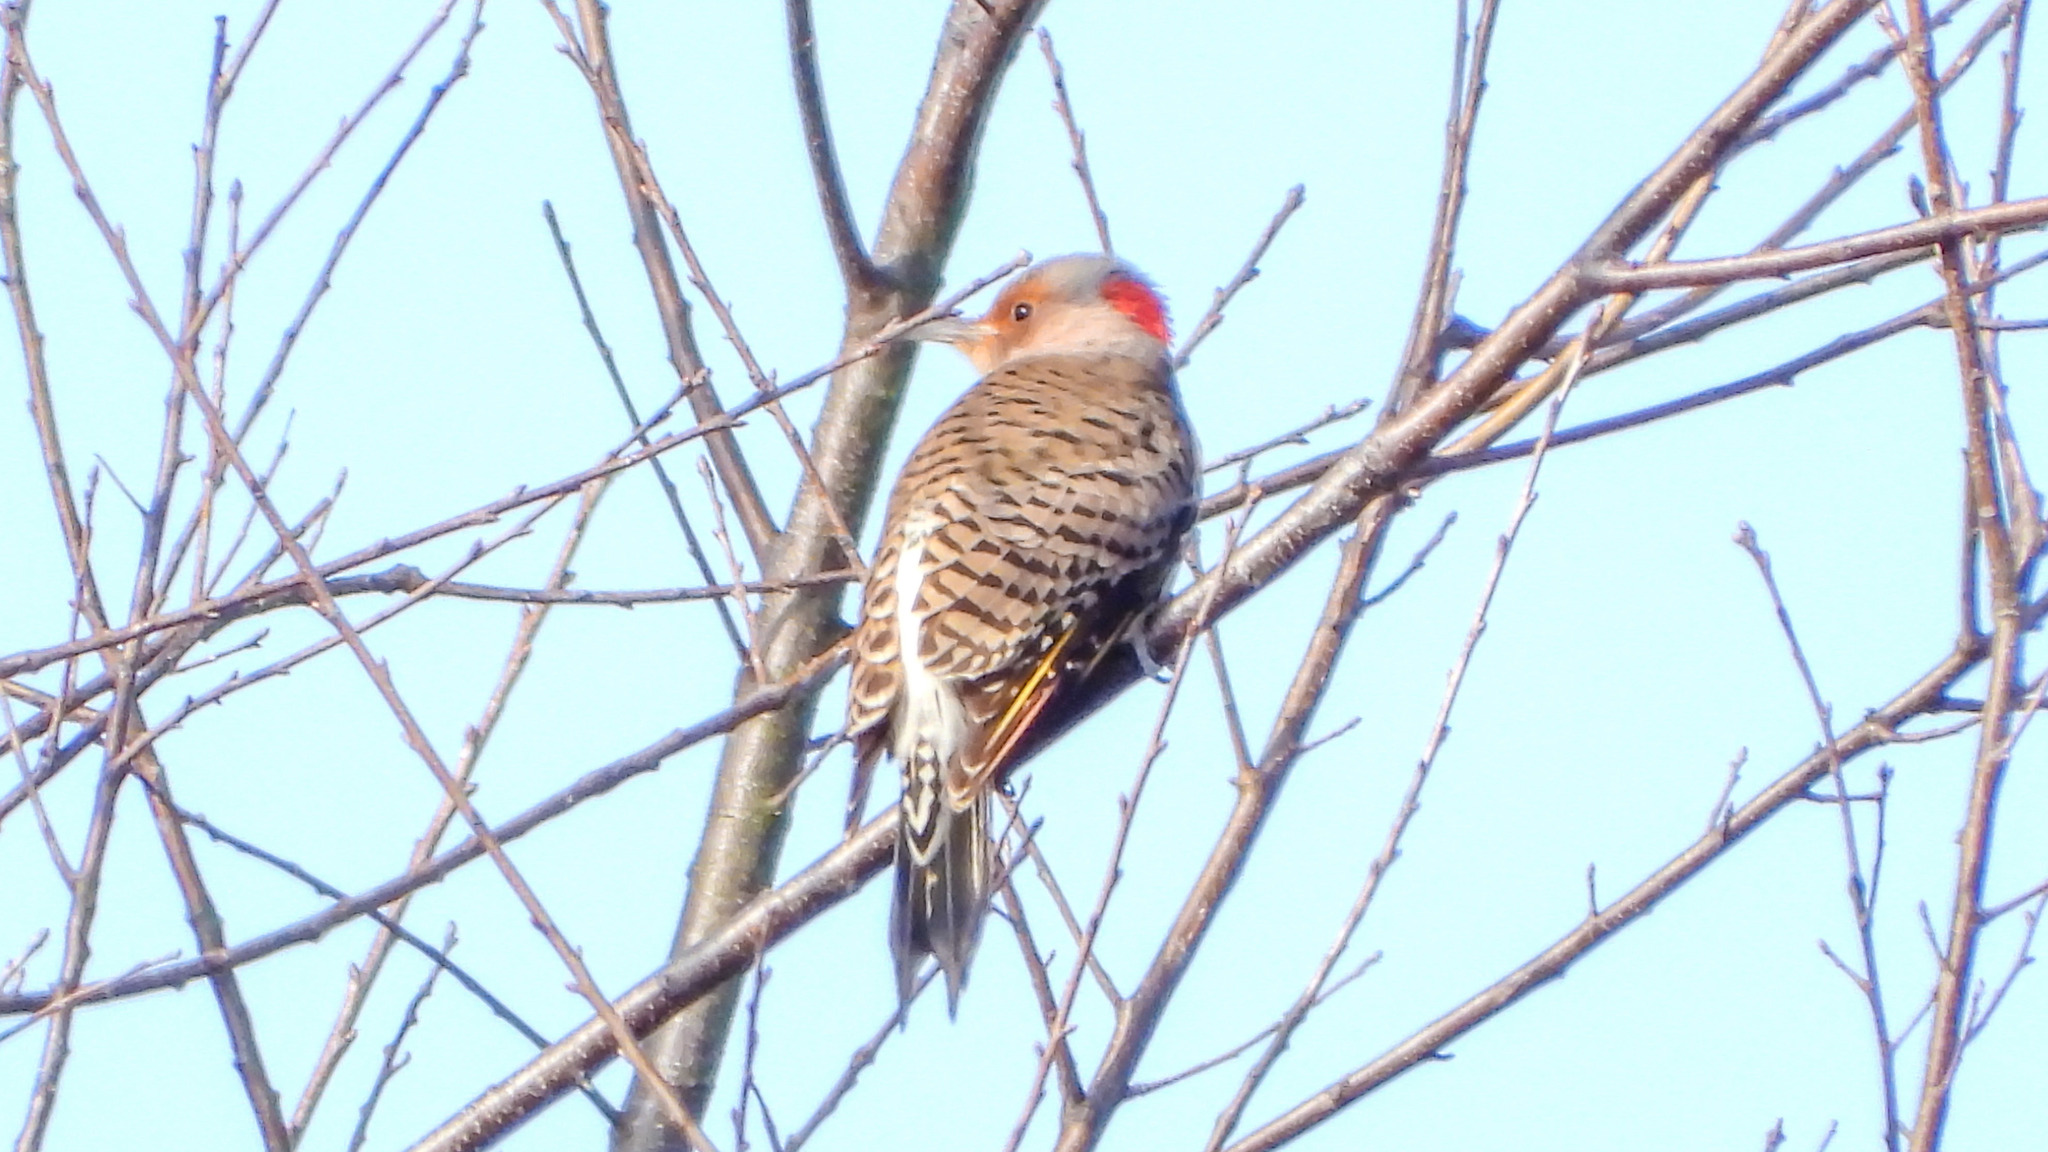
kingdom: Animalia
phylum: Chordata
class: Aves
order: Piciformes
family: Picidae
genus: Colaptes
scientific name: Colaptes auratus
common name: Northern flicker
